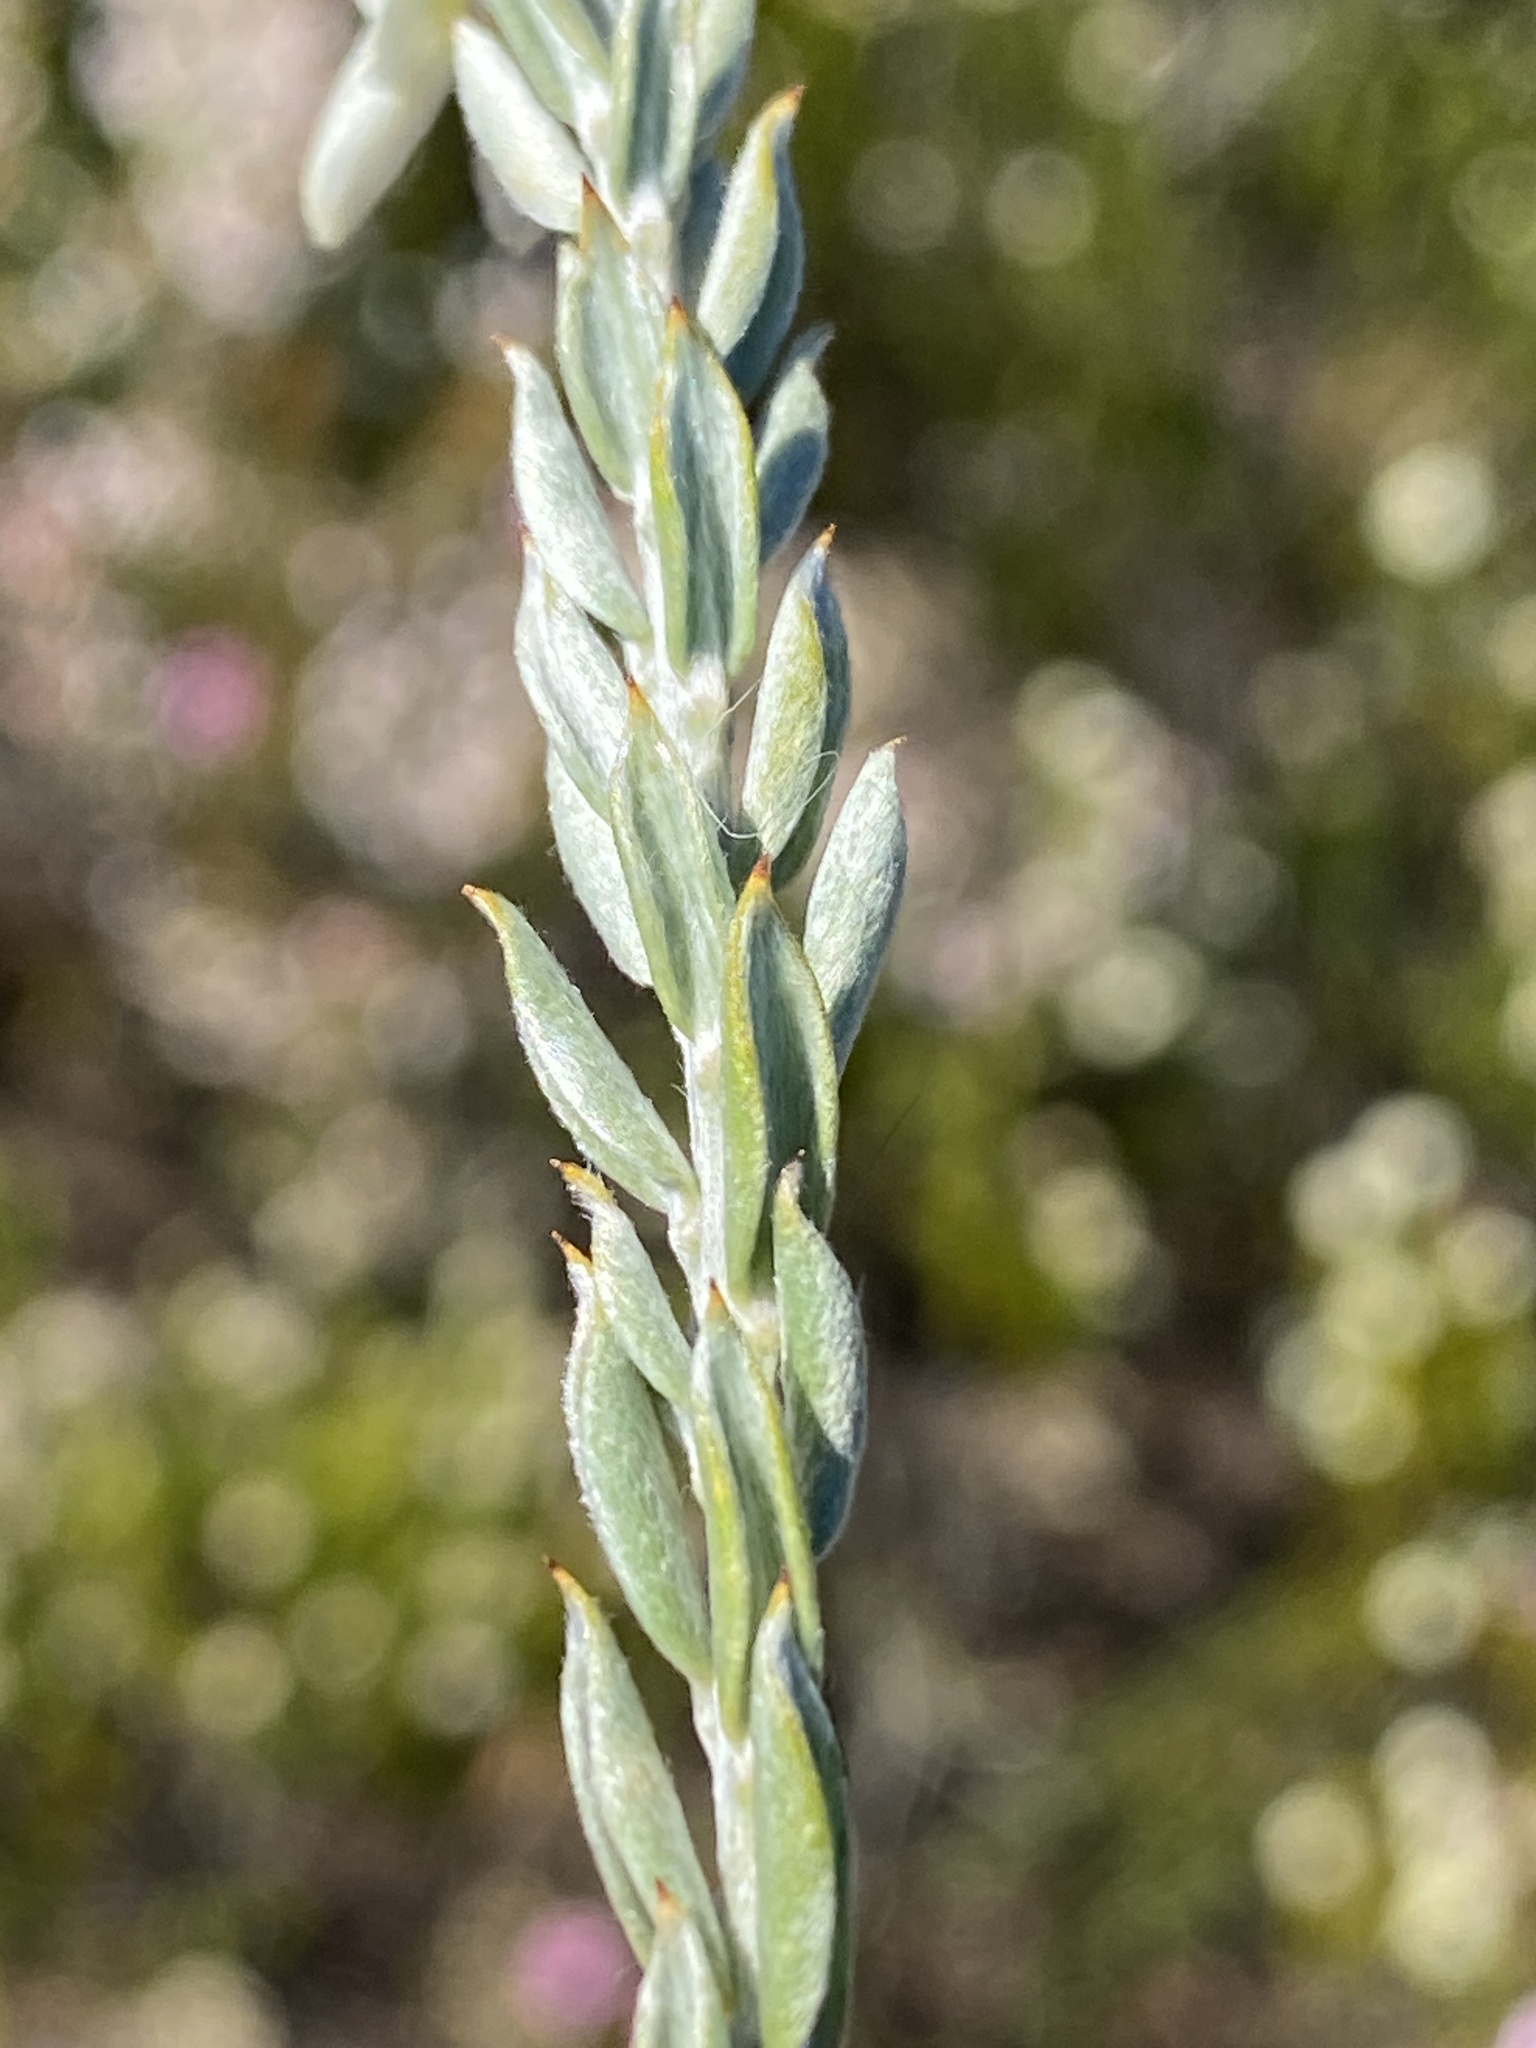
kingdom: Plantae
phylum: Tracheophyta
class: Magnoliopsida
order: Fabales
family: Fabaceae
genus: Amphithalea
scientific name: Amphithalea alba
